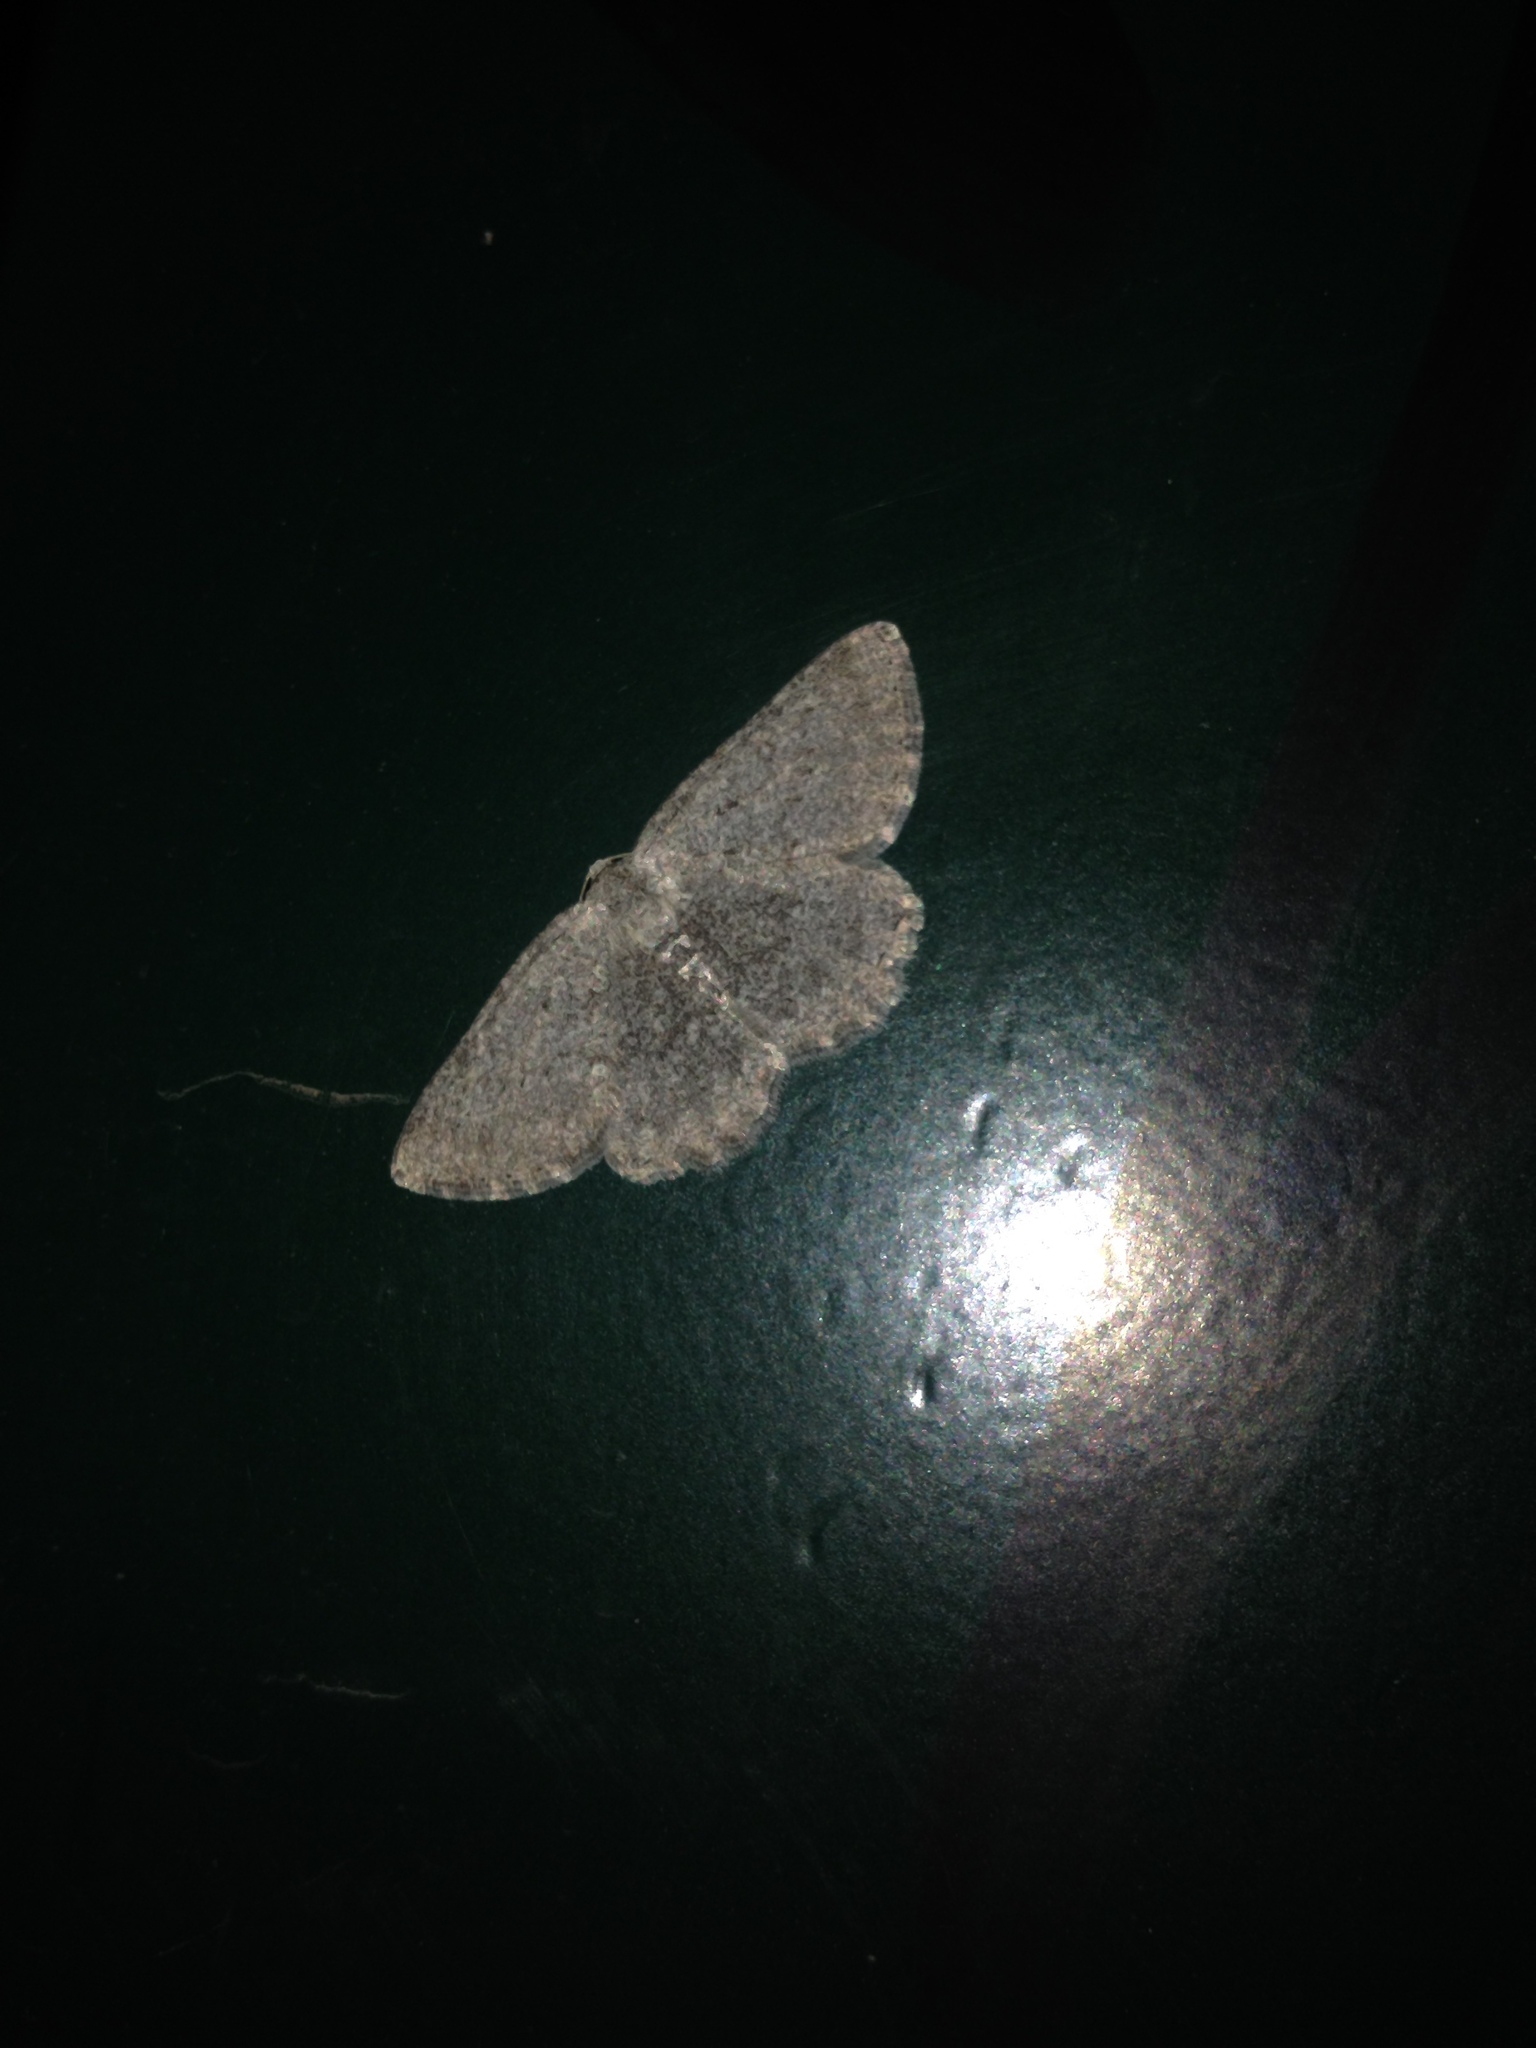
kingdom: Animalia
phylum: Arthropoda
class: Insecta
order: Lepidoptera
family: Geometridae
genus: Charissa
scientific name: Charissa ambiguata
